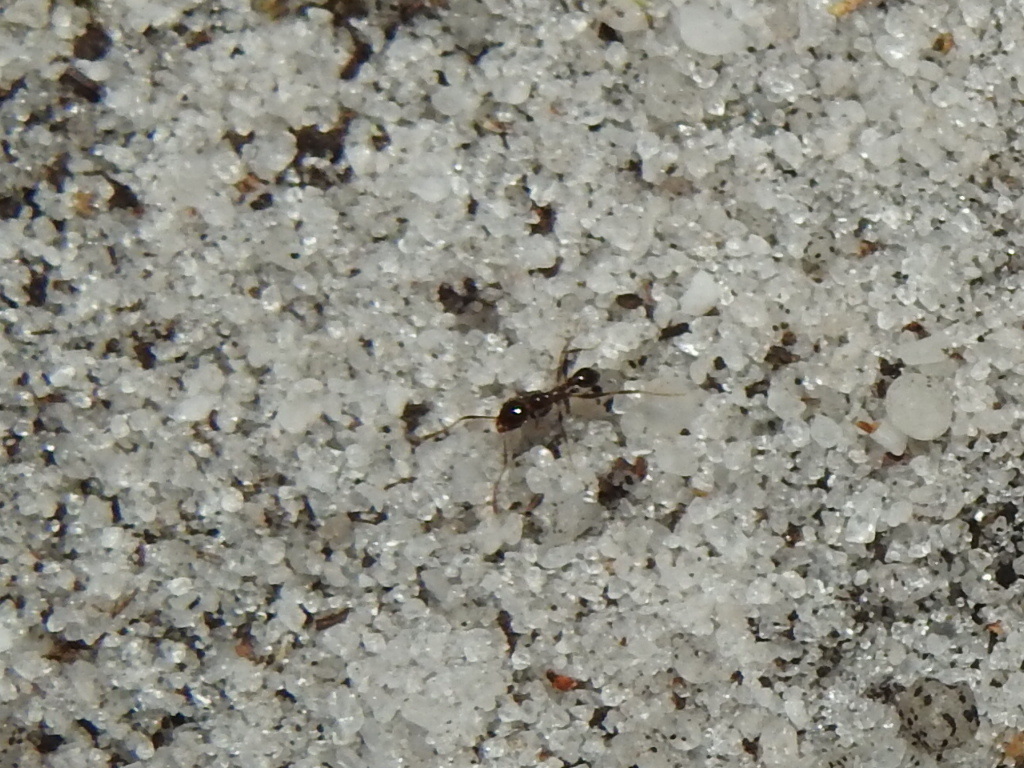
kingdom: Animalia
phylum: Arthropoda
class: Insecta
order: Hymenoptera
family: Formicidae
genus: Pheidole
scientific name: Pheidole dentata
